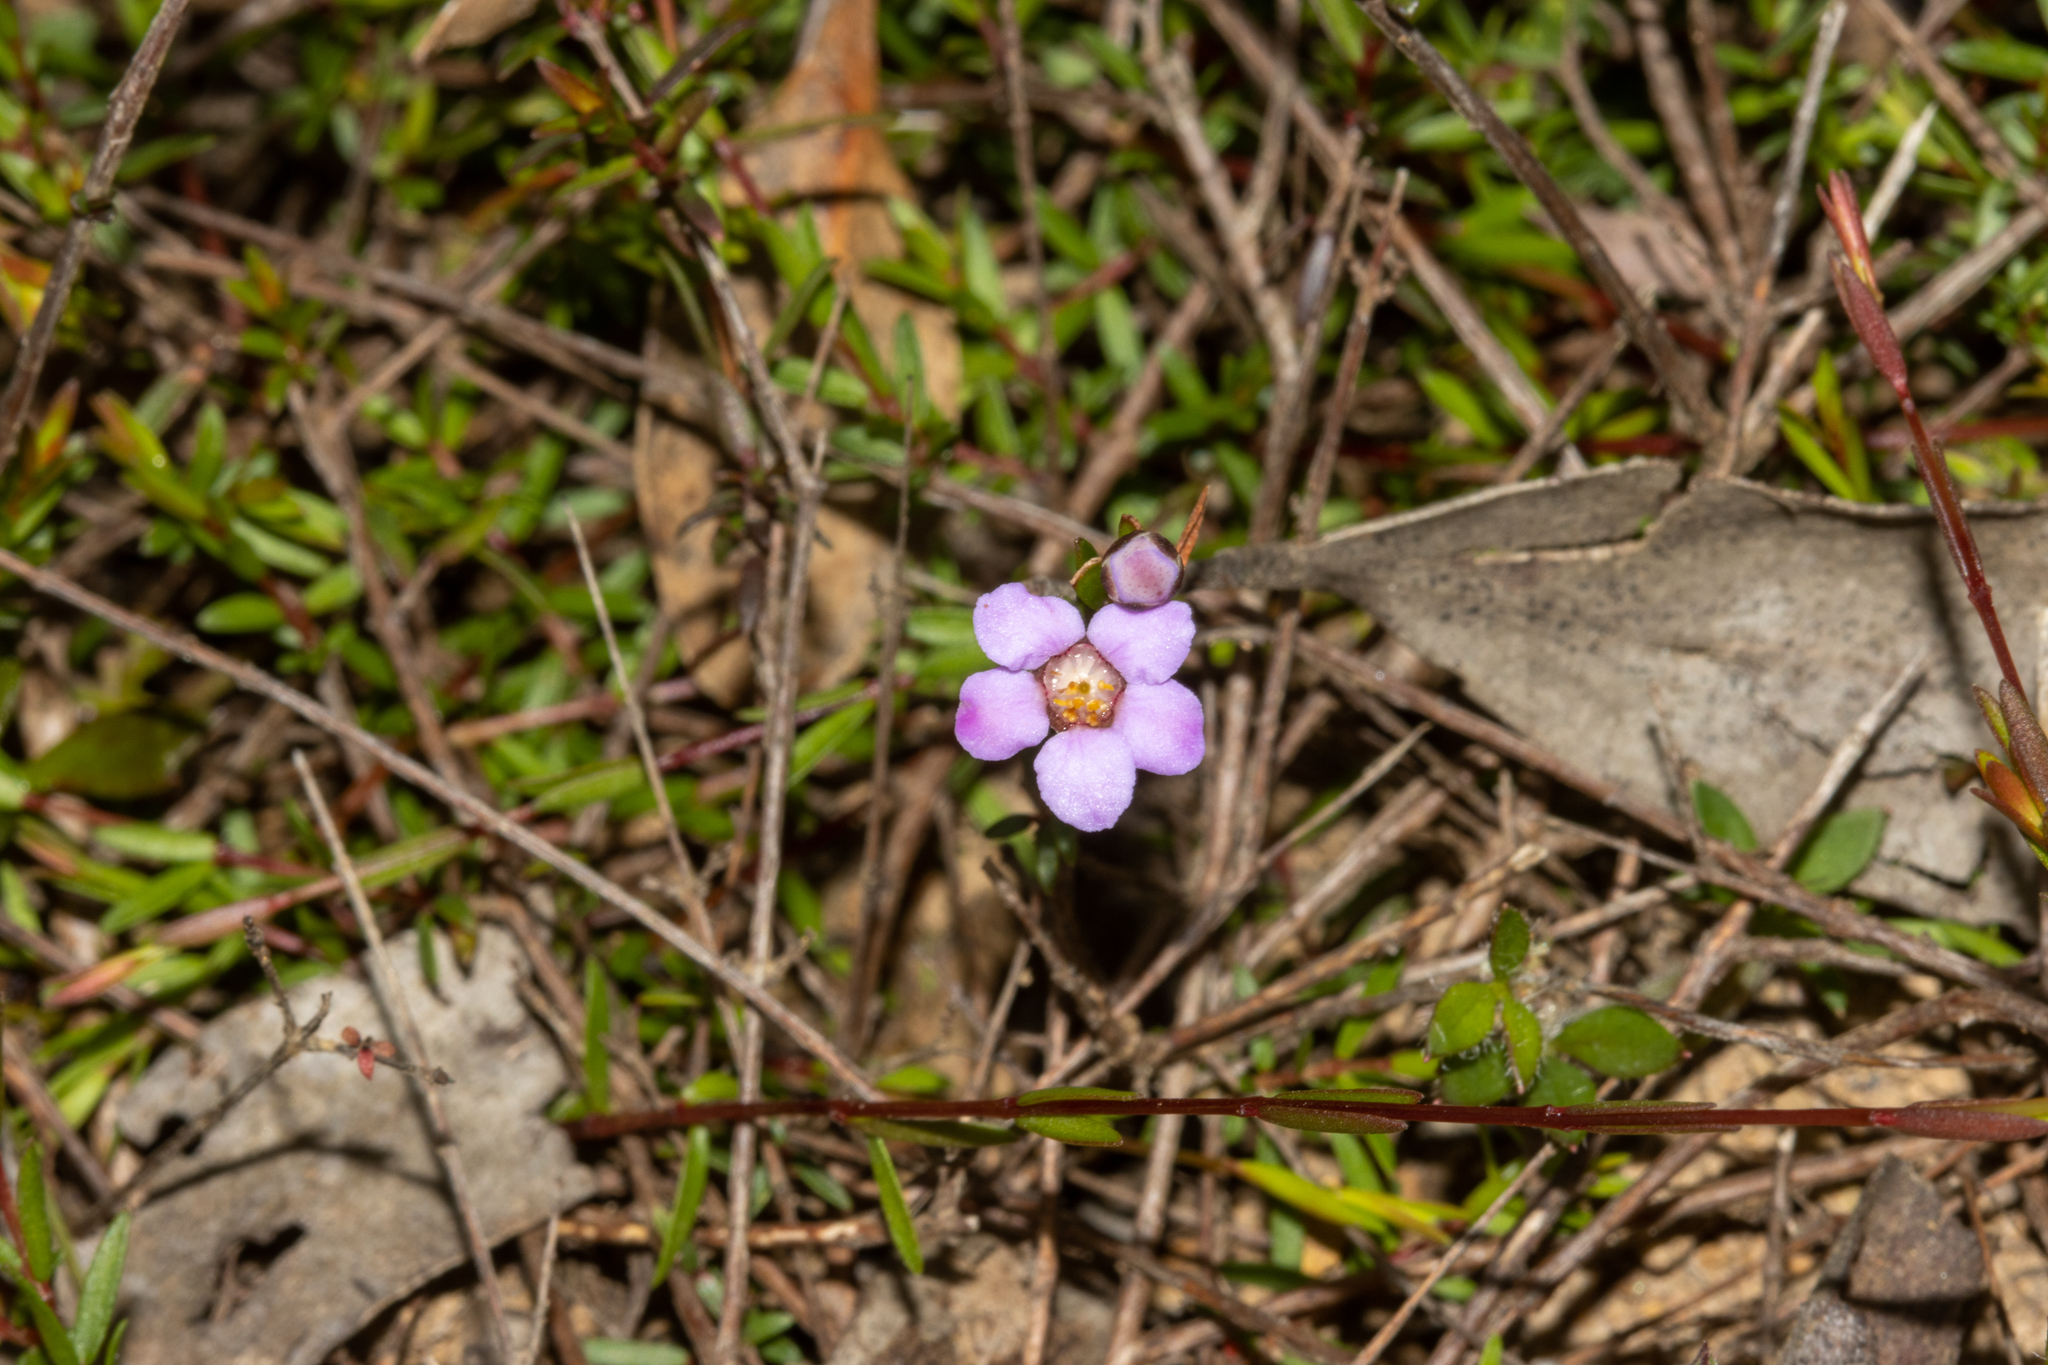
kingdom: Plantae
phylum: Tracheophyta
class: Magnoliopsida
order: Myrtales
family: Myrtaceae
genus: Euryomyrtus
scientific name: Euryomyrtus ramosissima
